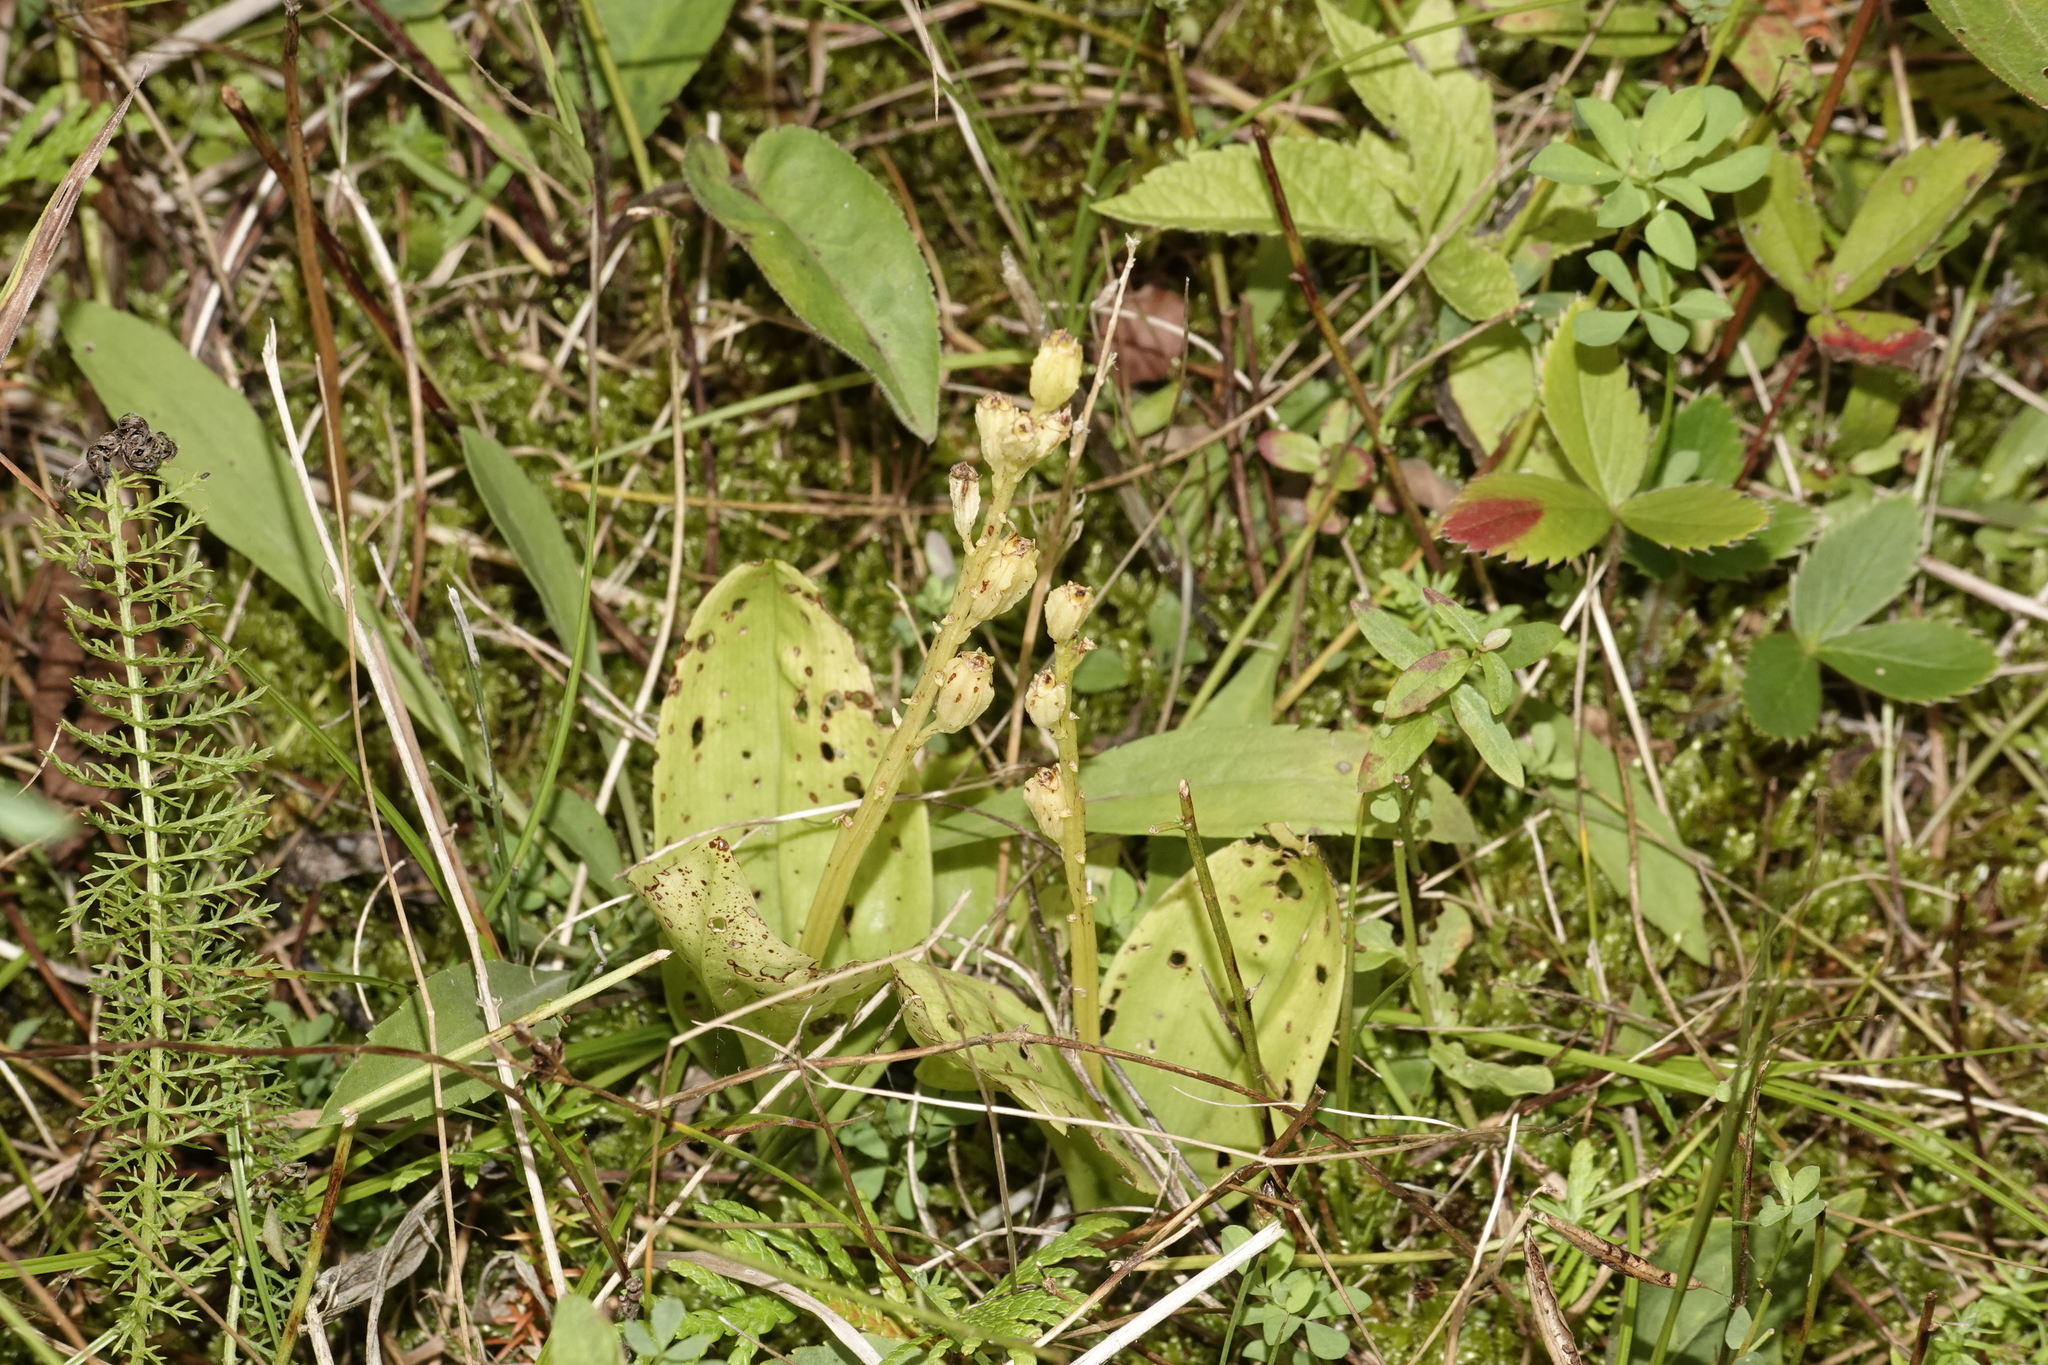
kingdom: Animalia
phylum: Arthropoda
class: Insecta
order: Coleoptera
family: Curculionidae
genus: Liparis
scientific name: Liparis loeselii
